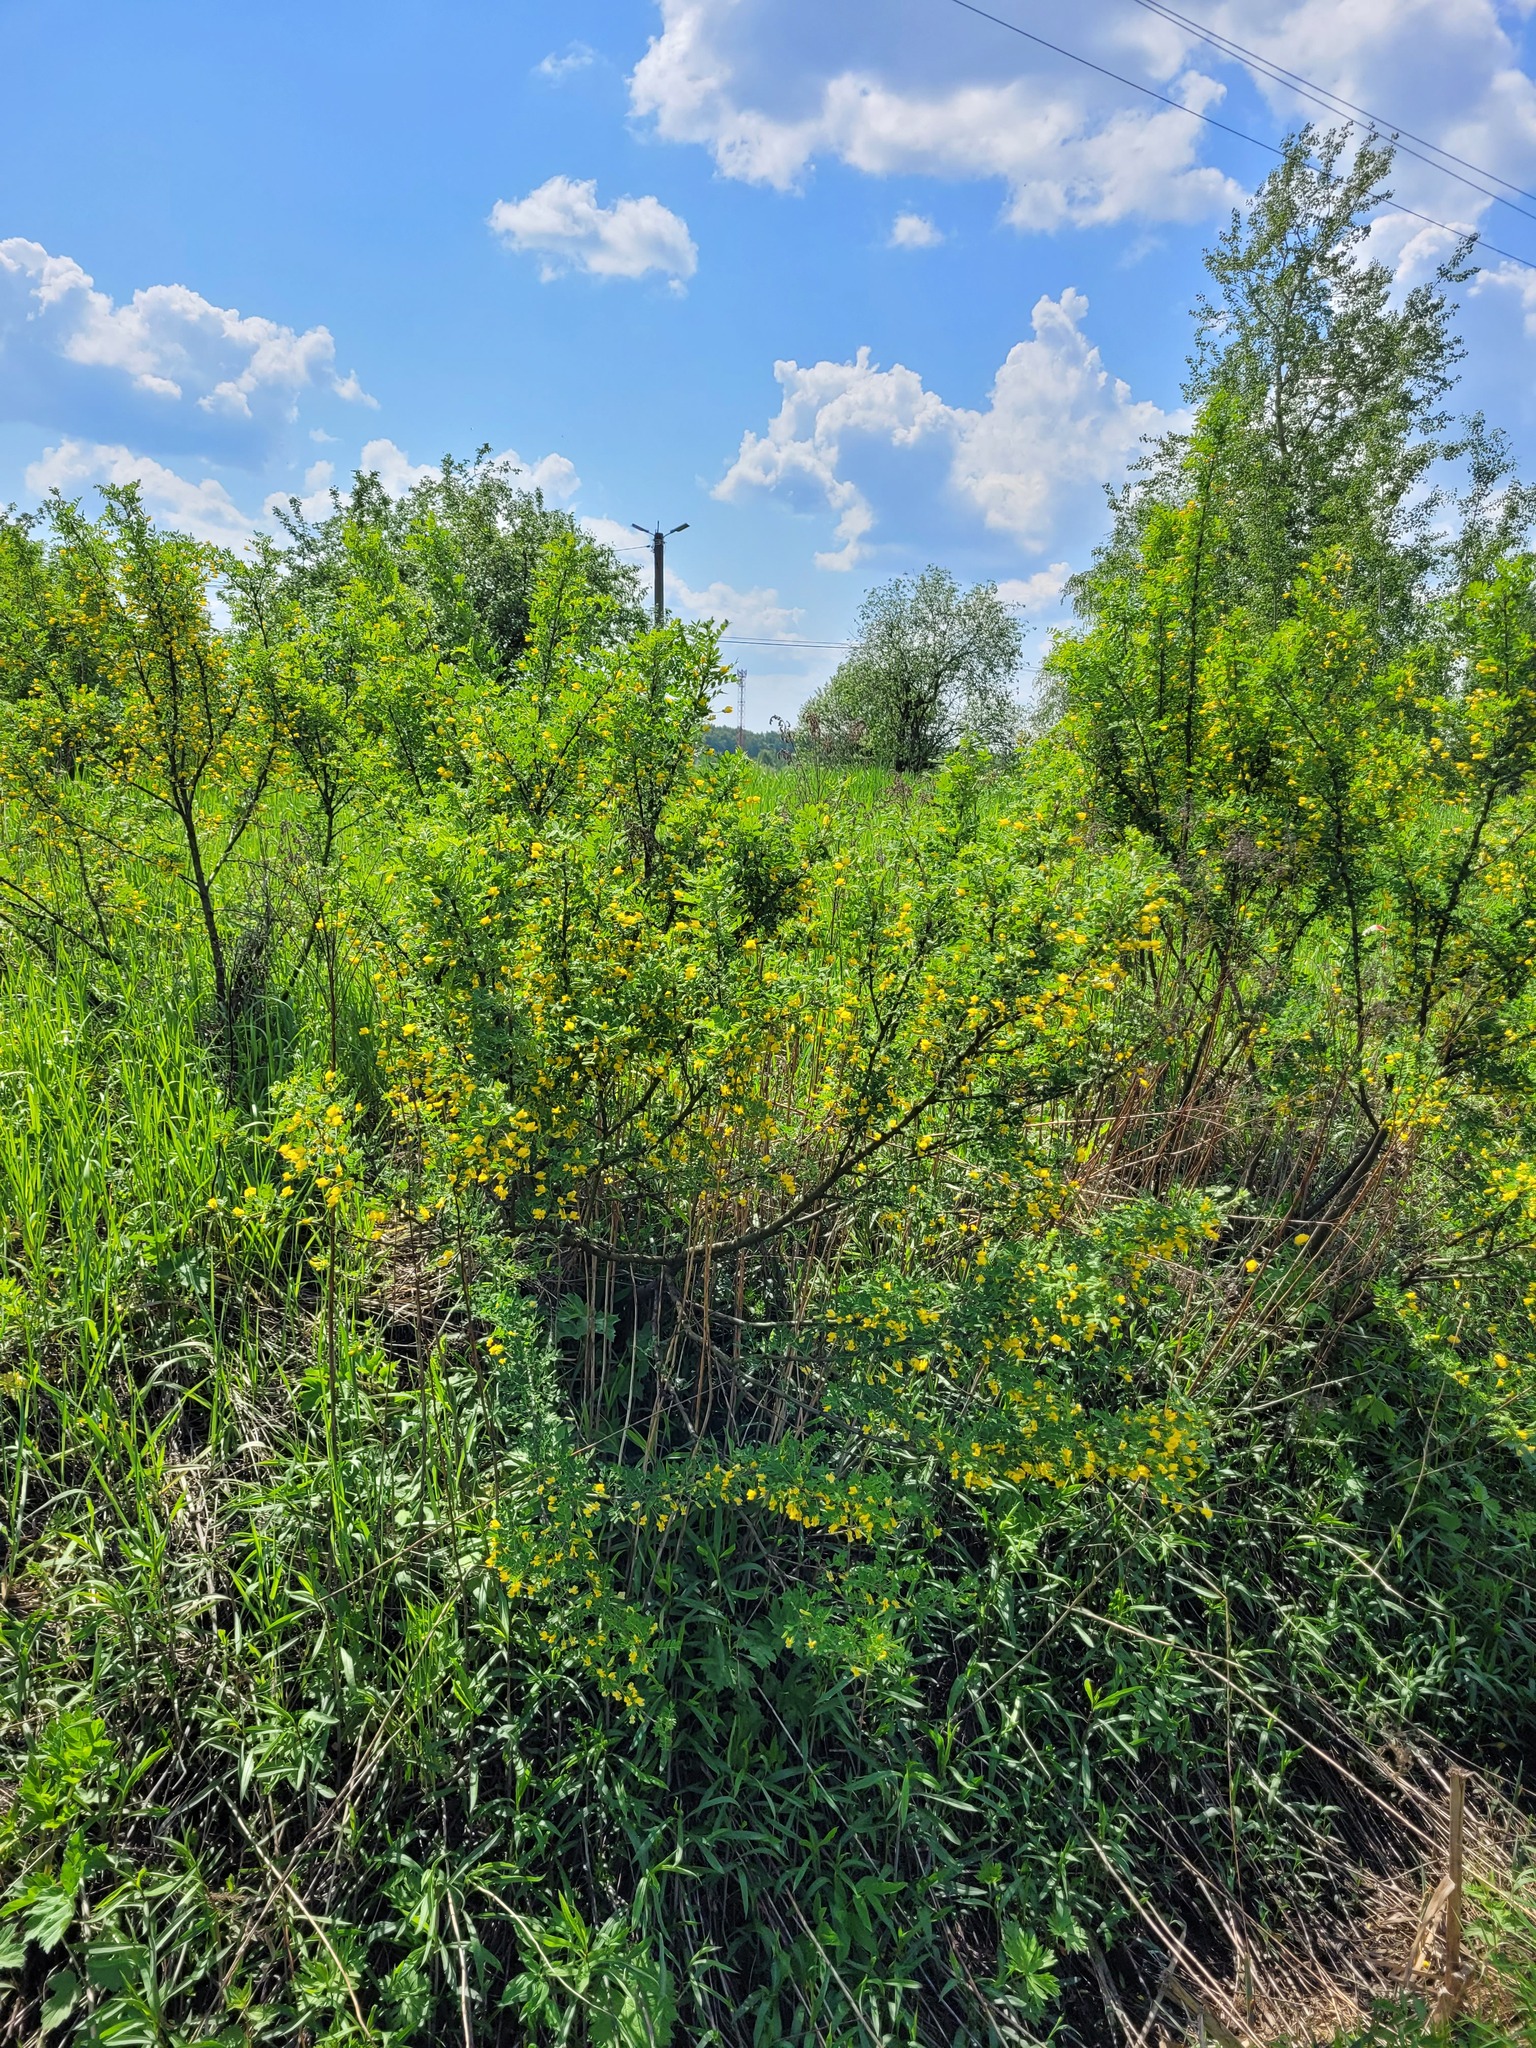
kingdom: Plantae
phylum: Tracheophyta
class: Magnoliopsida
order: Fabales
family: Fabaceae
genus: Caragana
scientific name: Caragana arborescens
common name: Siberian peashrub
